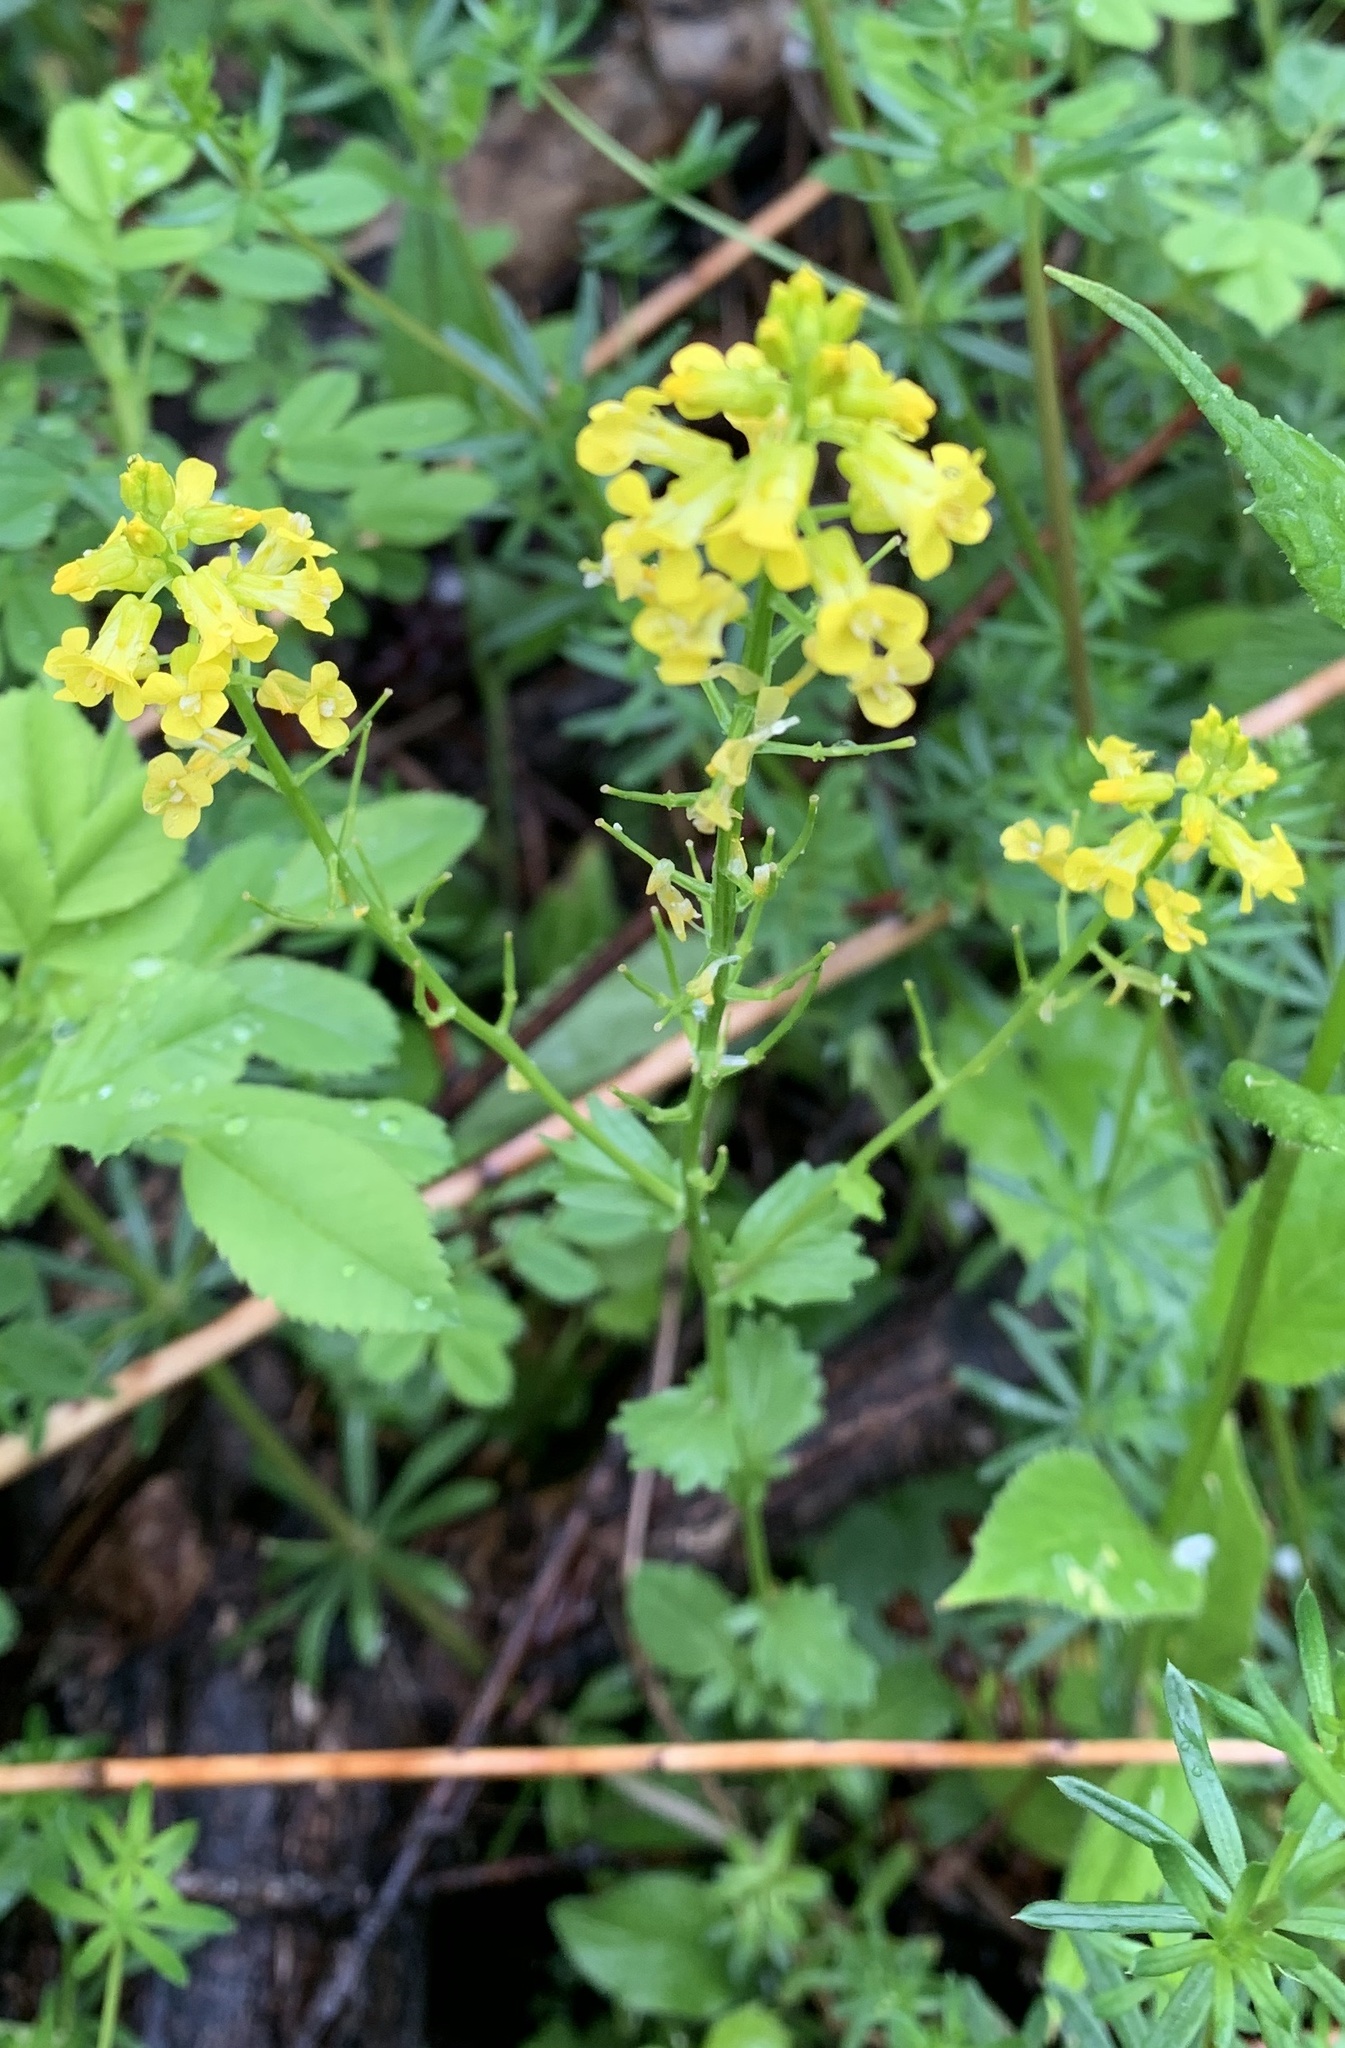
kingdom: Plantae
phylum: Tracheophyta
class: Magnoliopsida
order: Brassicales
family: Brassicaceae
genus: Barbarea
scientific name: Barbarea vulgaris
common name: Cressy-greens
